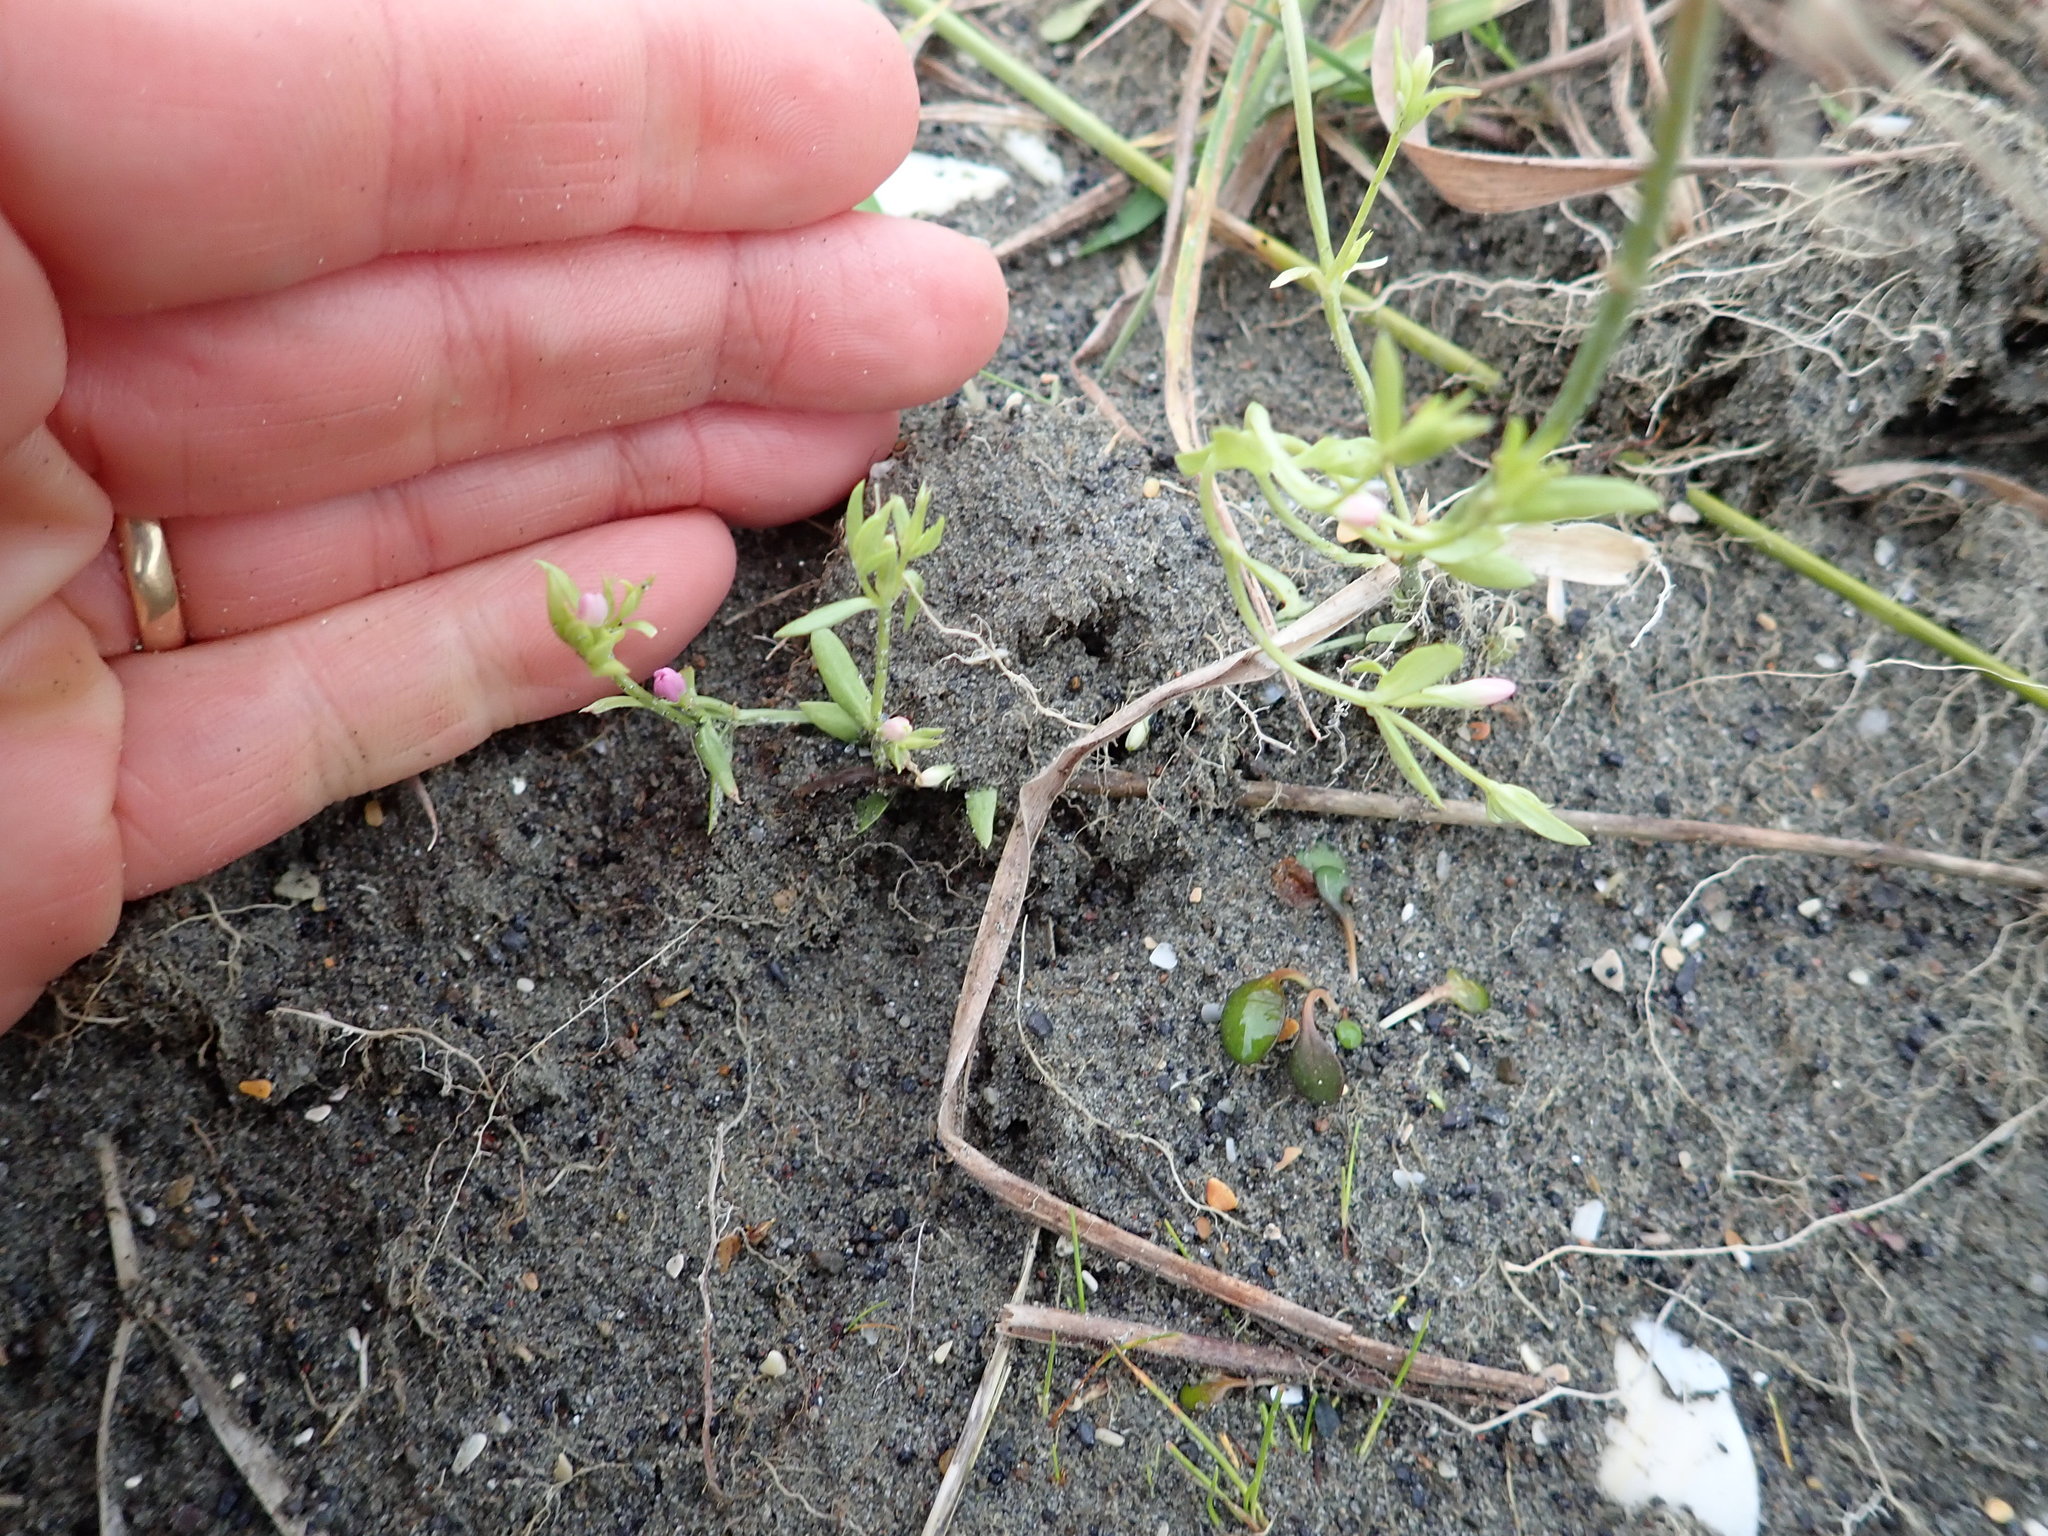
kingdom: Plantae
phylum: Tracheophyta
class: Magnoliopsida
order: Gentianales
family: Gentianaceae
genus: Centaurium
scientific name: Centaurium erythraea
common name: Common centaury
